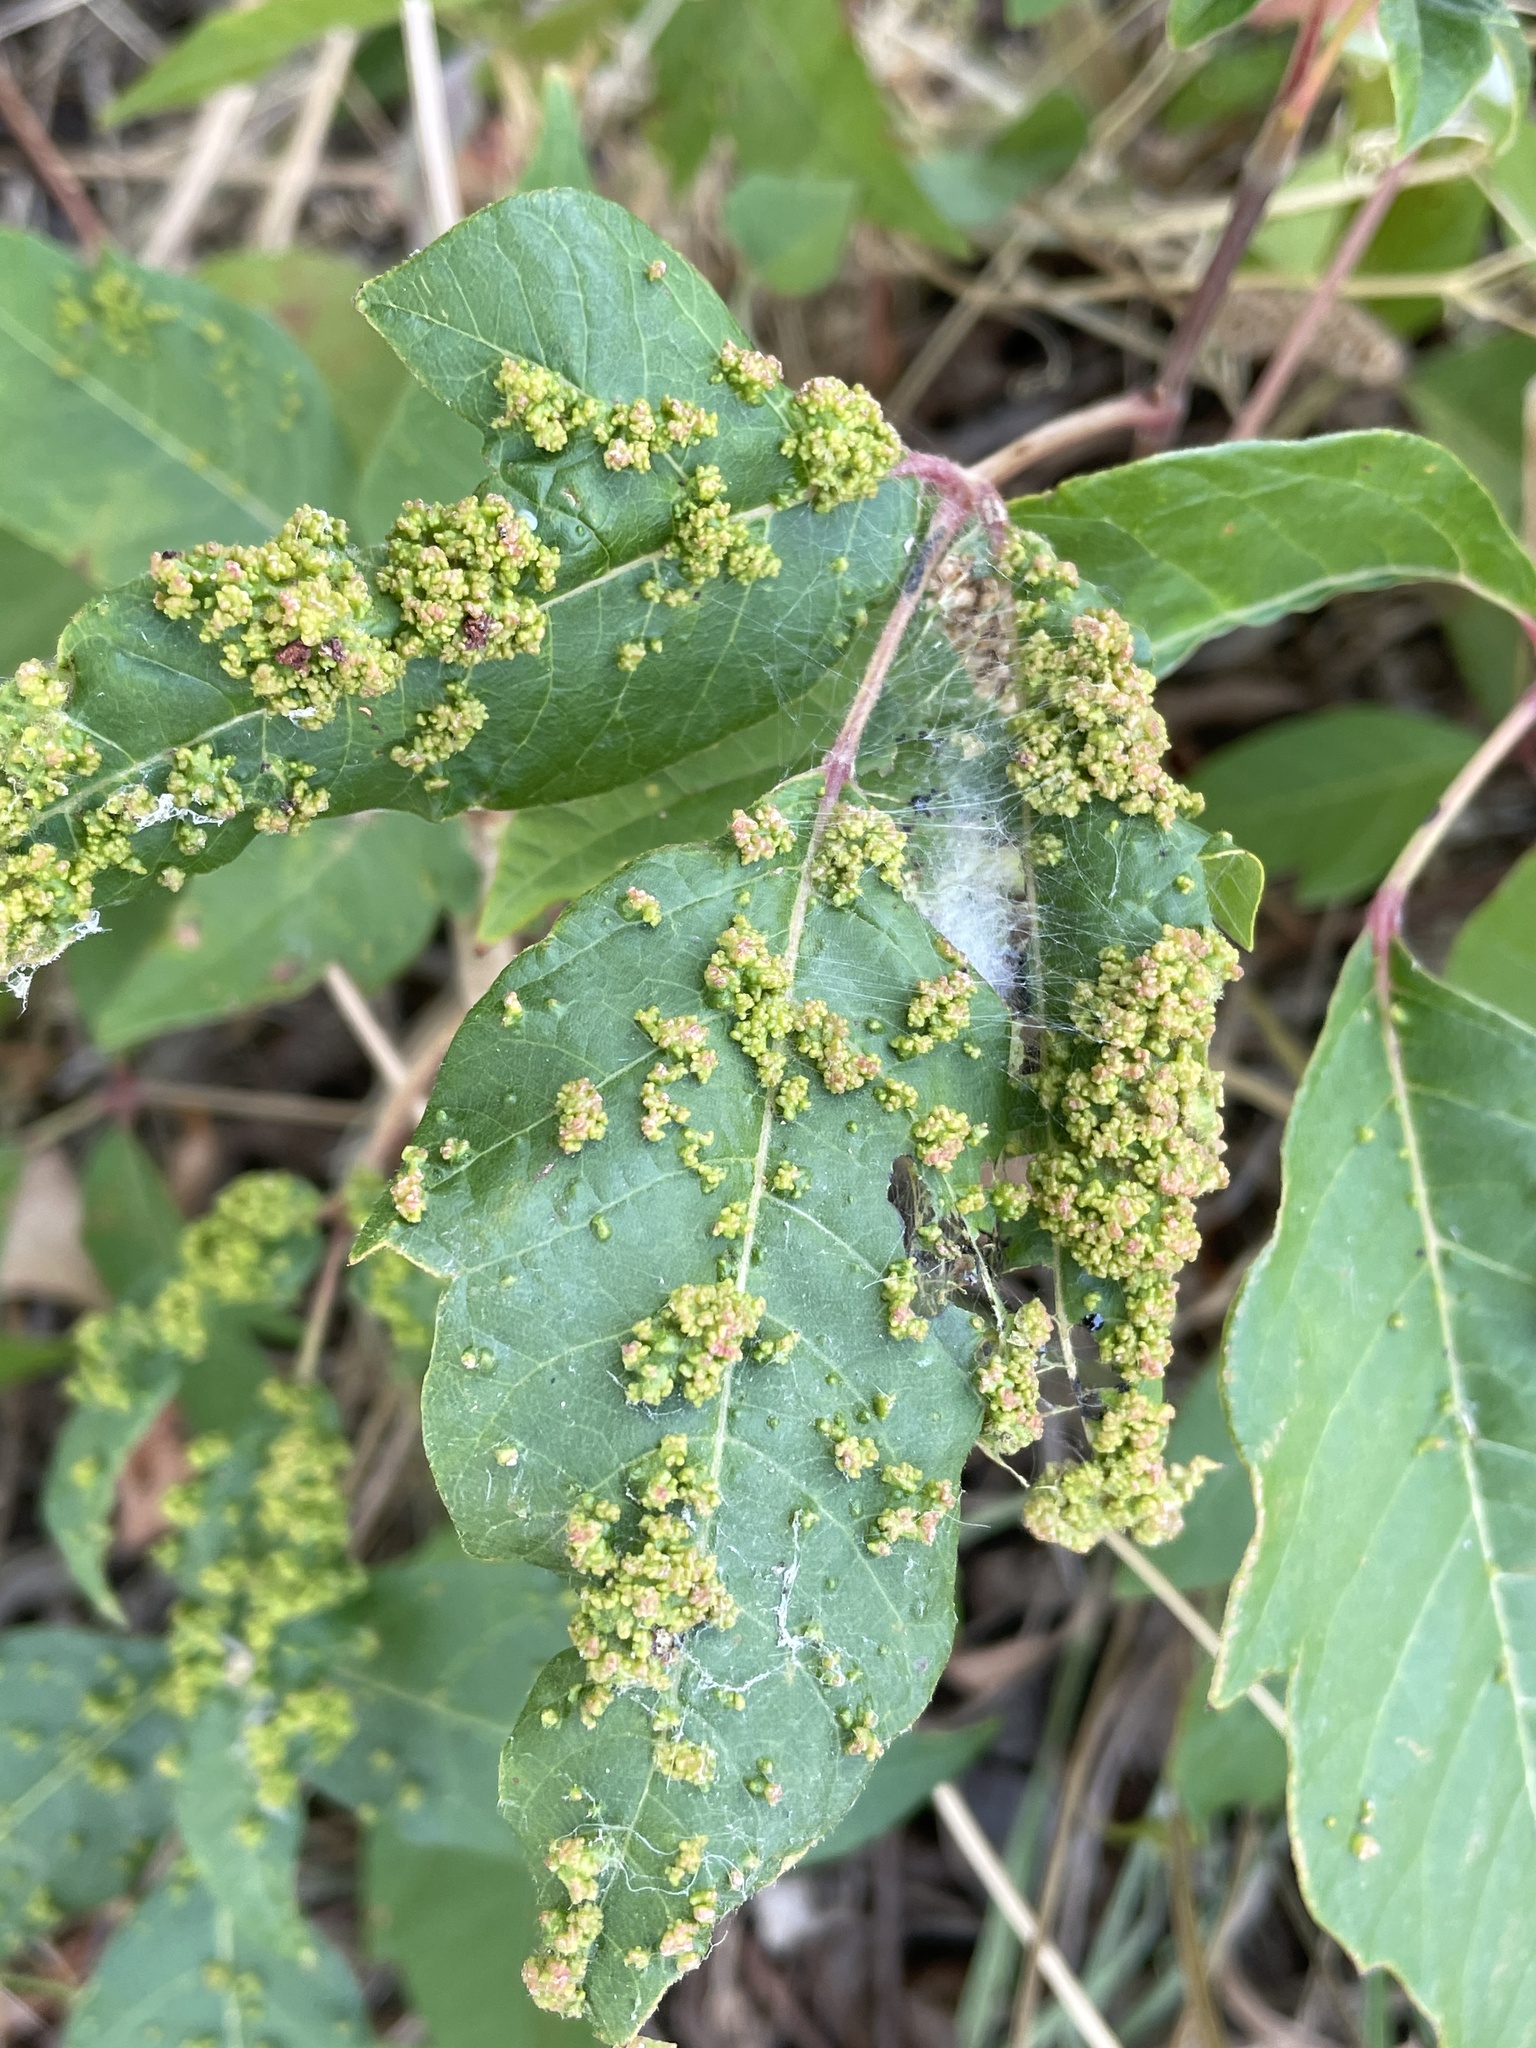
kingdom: Animalia
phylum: Arthropoda
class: Arachnida
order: Trombidiformes
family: Eriophyidae
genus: Aculops
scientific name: Aculops
